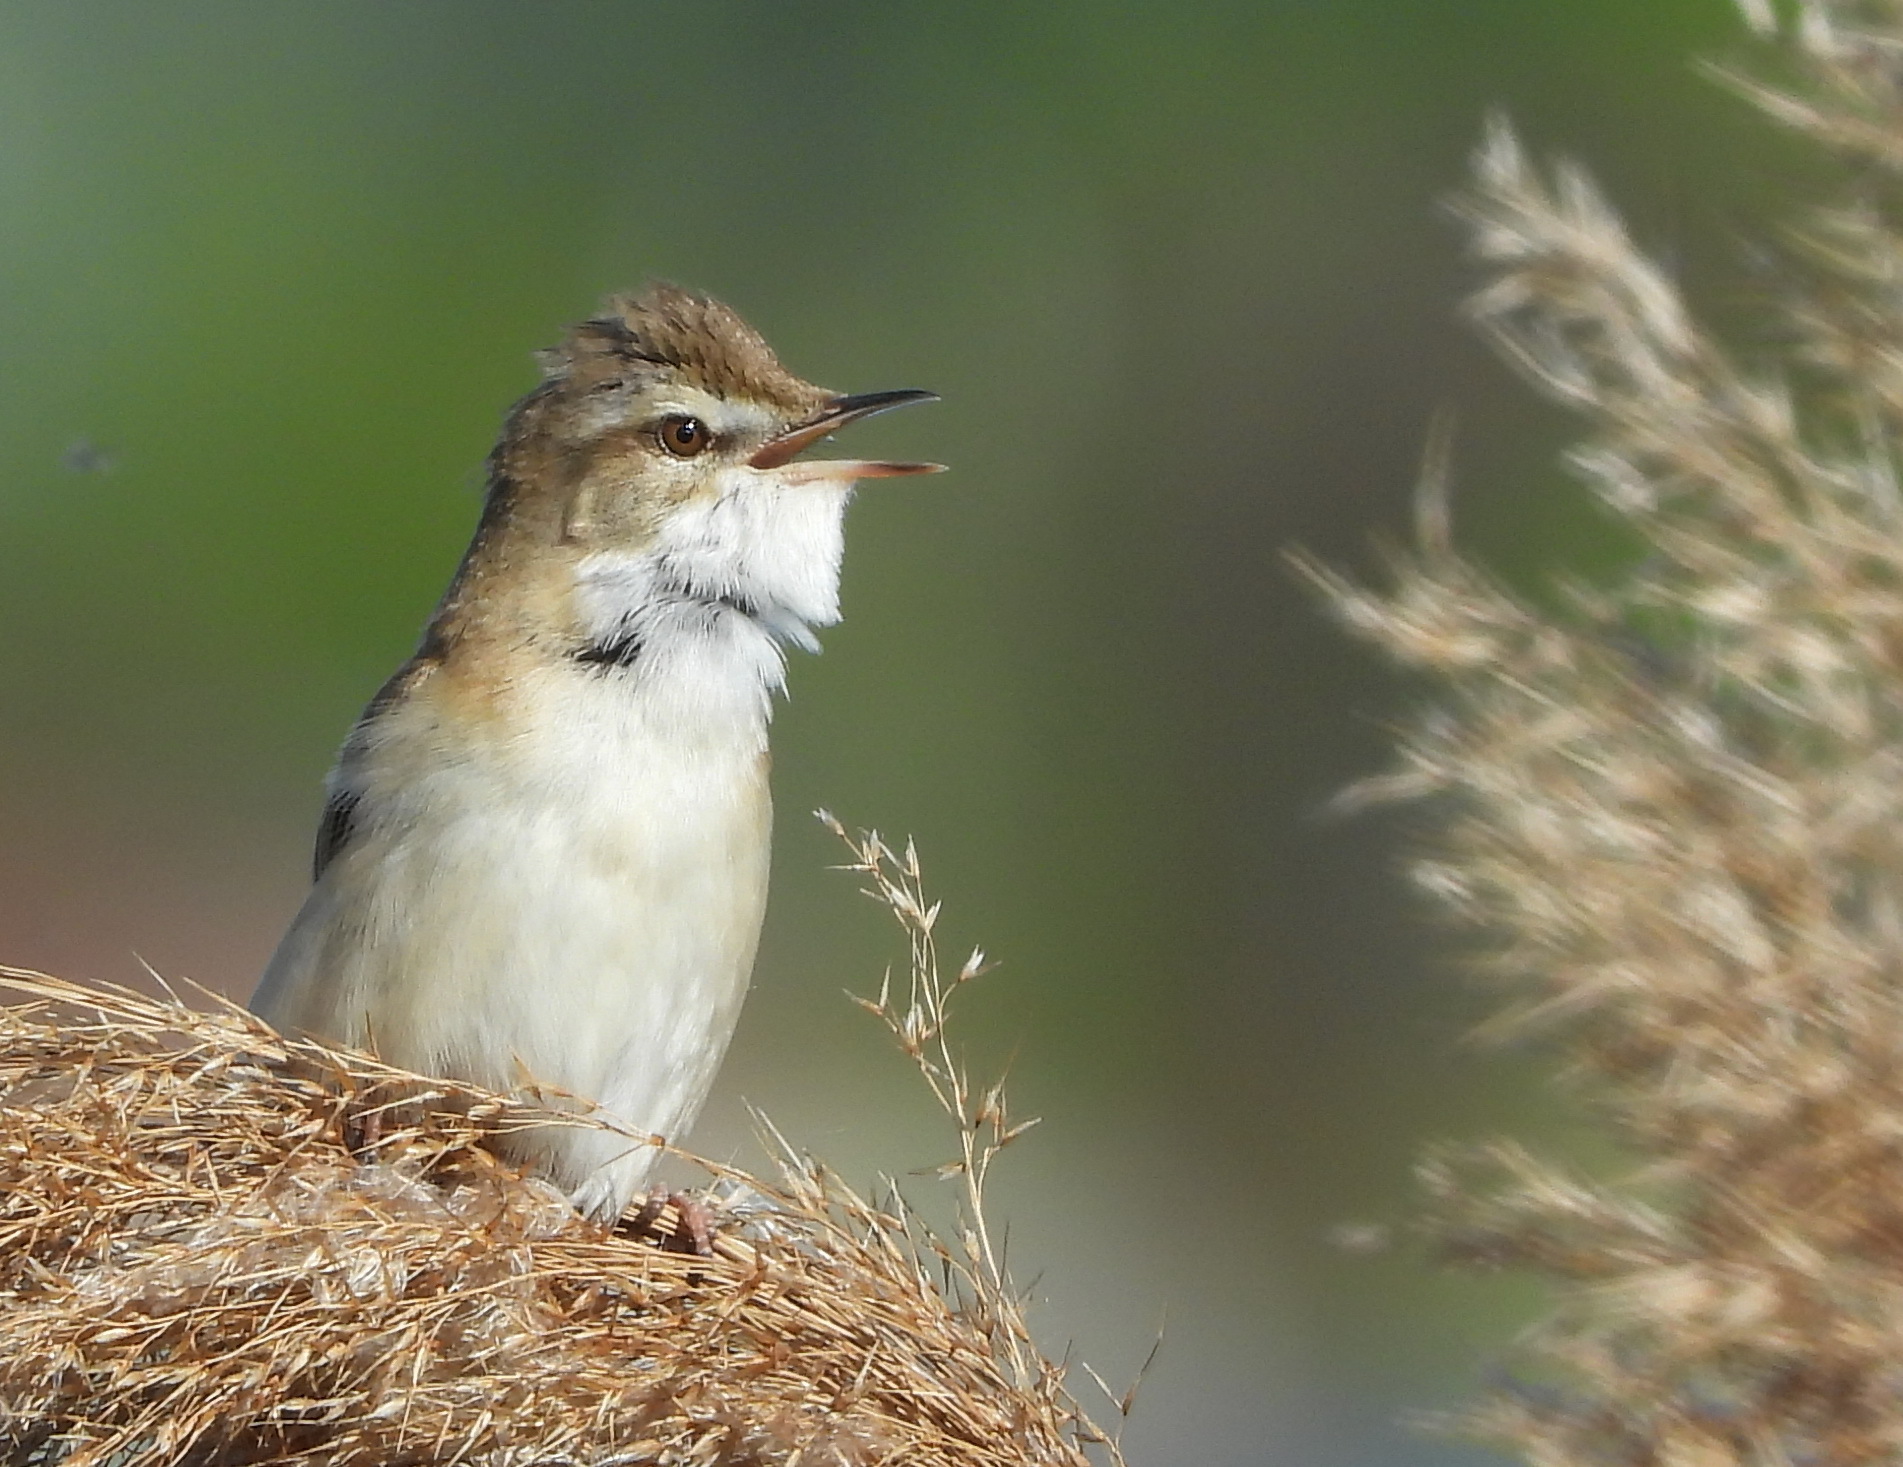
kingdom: Animalia
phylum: Chordata
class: Aves
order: Passeriformes
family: Acrocephalidae
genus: Acrocephalus
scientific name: Acrocephalus agricola
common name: Paddyfield warbler
